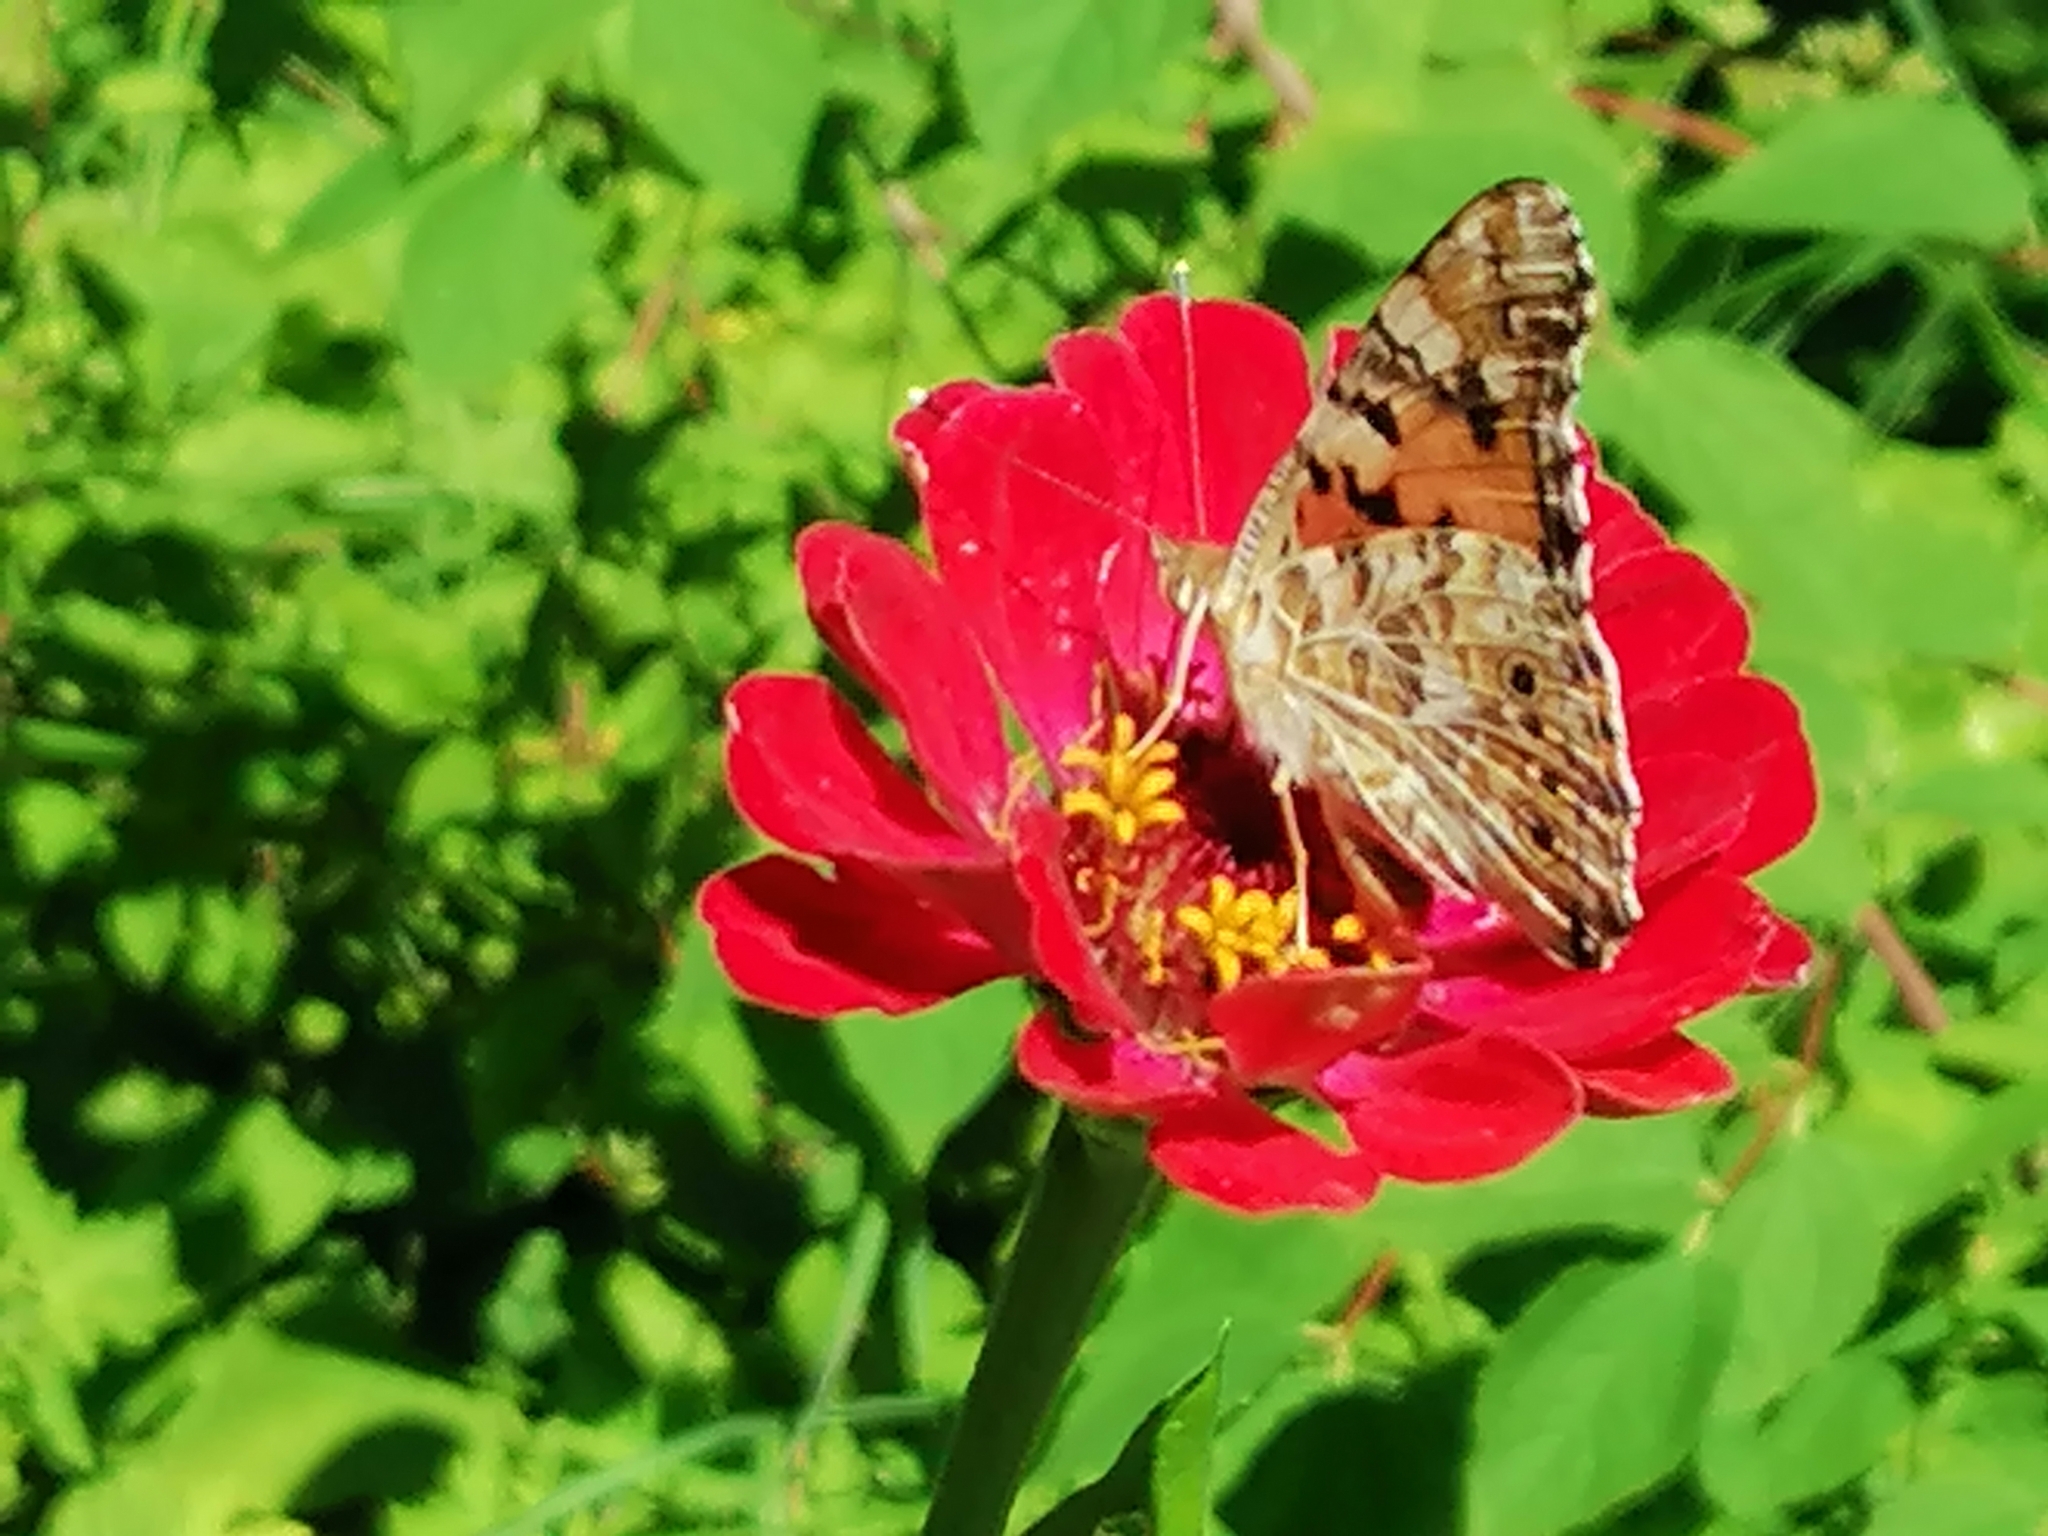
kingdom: Animalia
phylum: Arthropoda
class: Insecta
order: Lepidoptera
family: Nymphalidae
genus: Vanessa
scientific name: Vanessa cardui
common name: Painted lady
